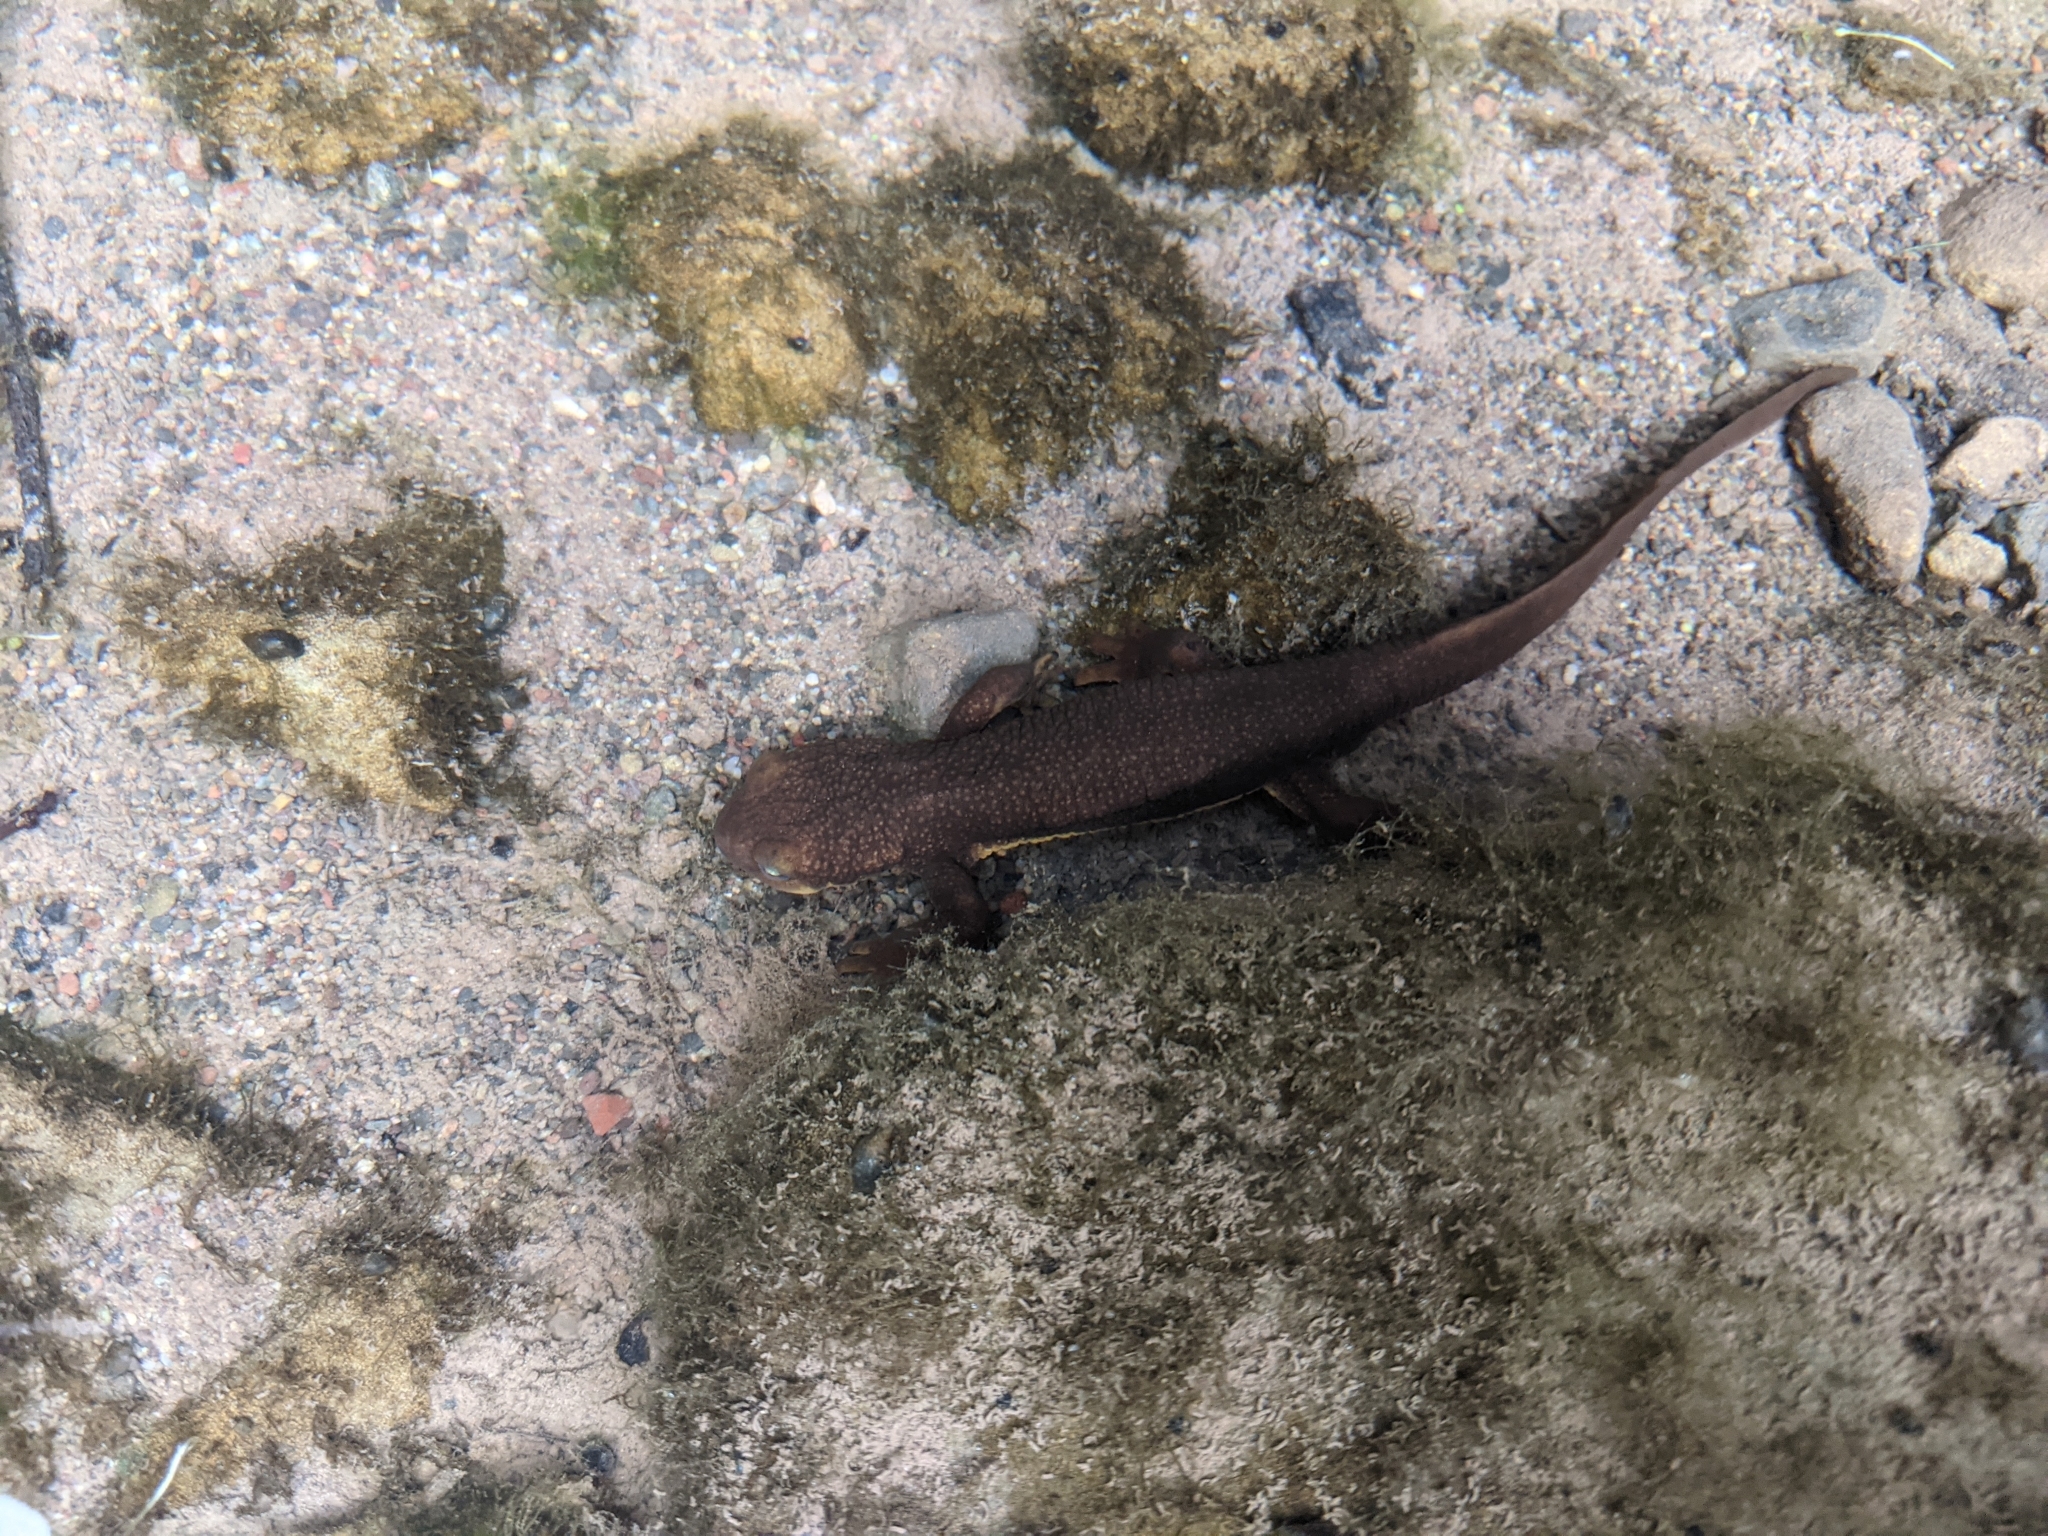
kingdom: Animalia
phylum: Chordata
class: Amphibia
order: Caudata
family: Salamandridae
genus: Taricha
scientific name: Taricha torosa
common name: California newt
